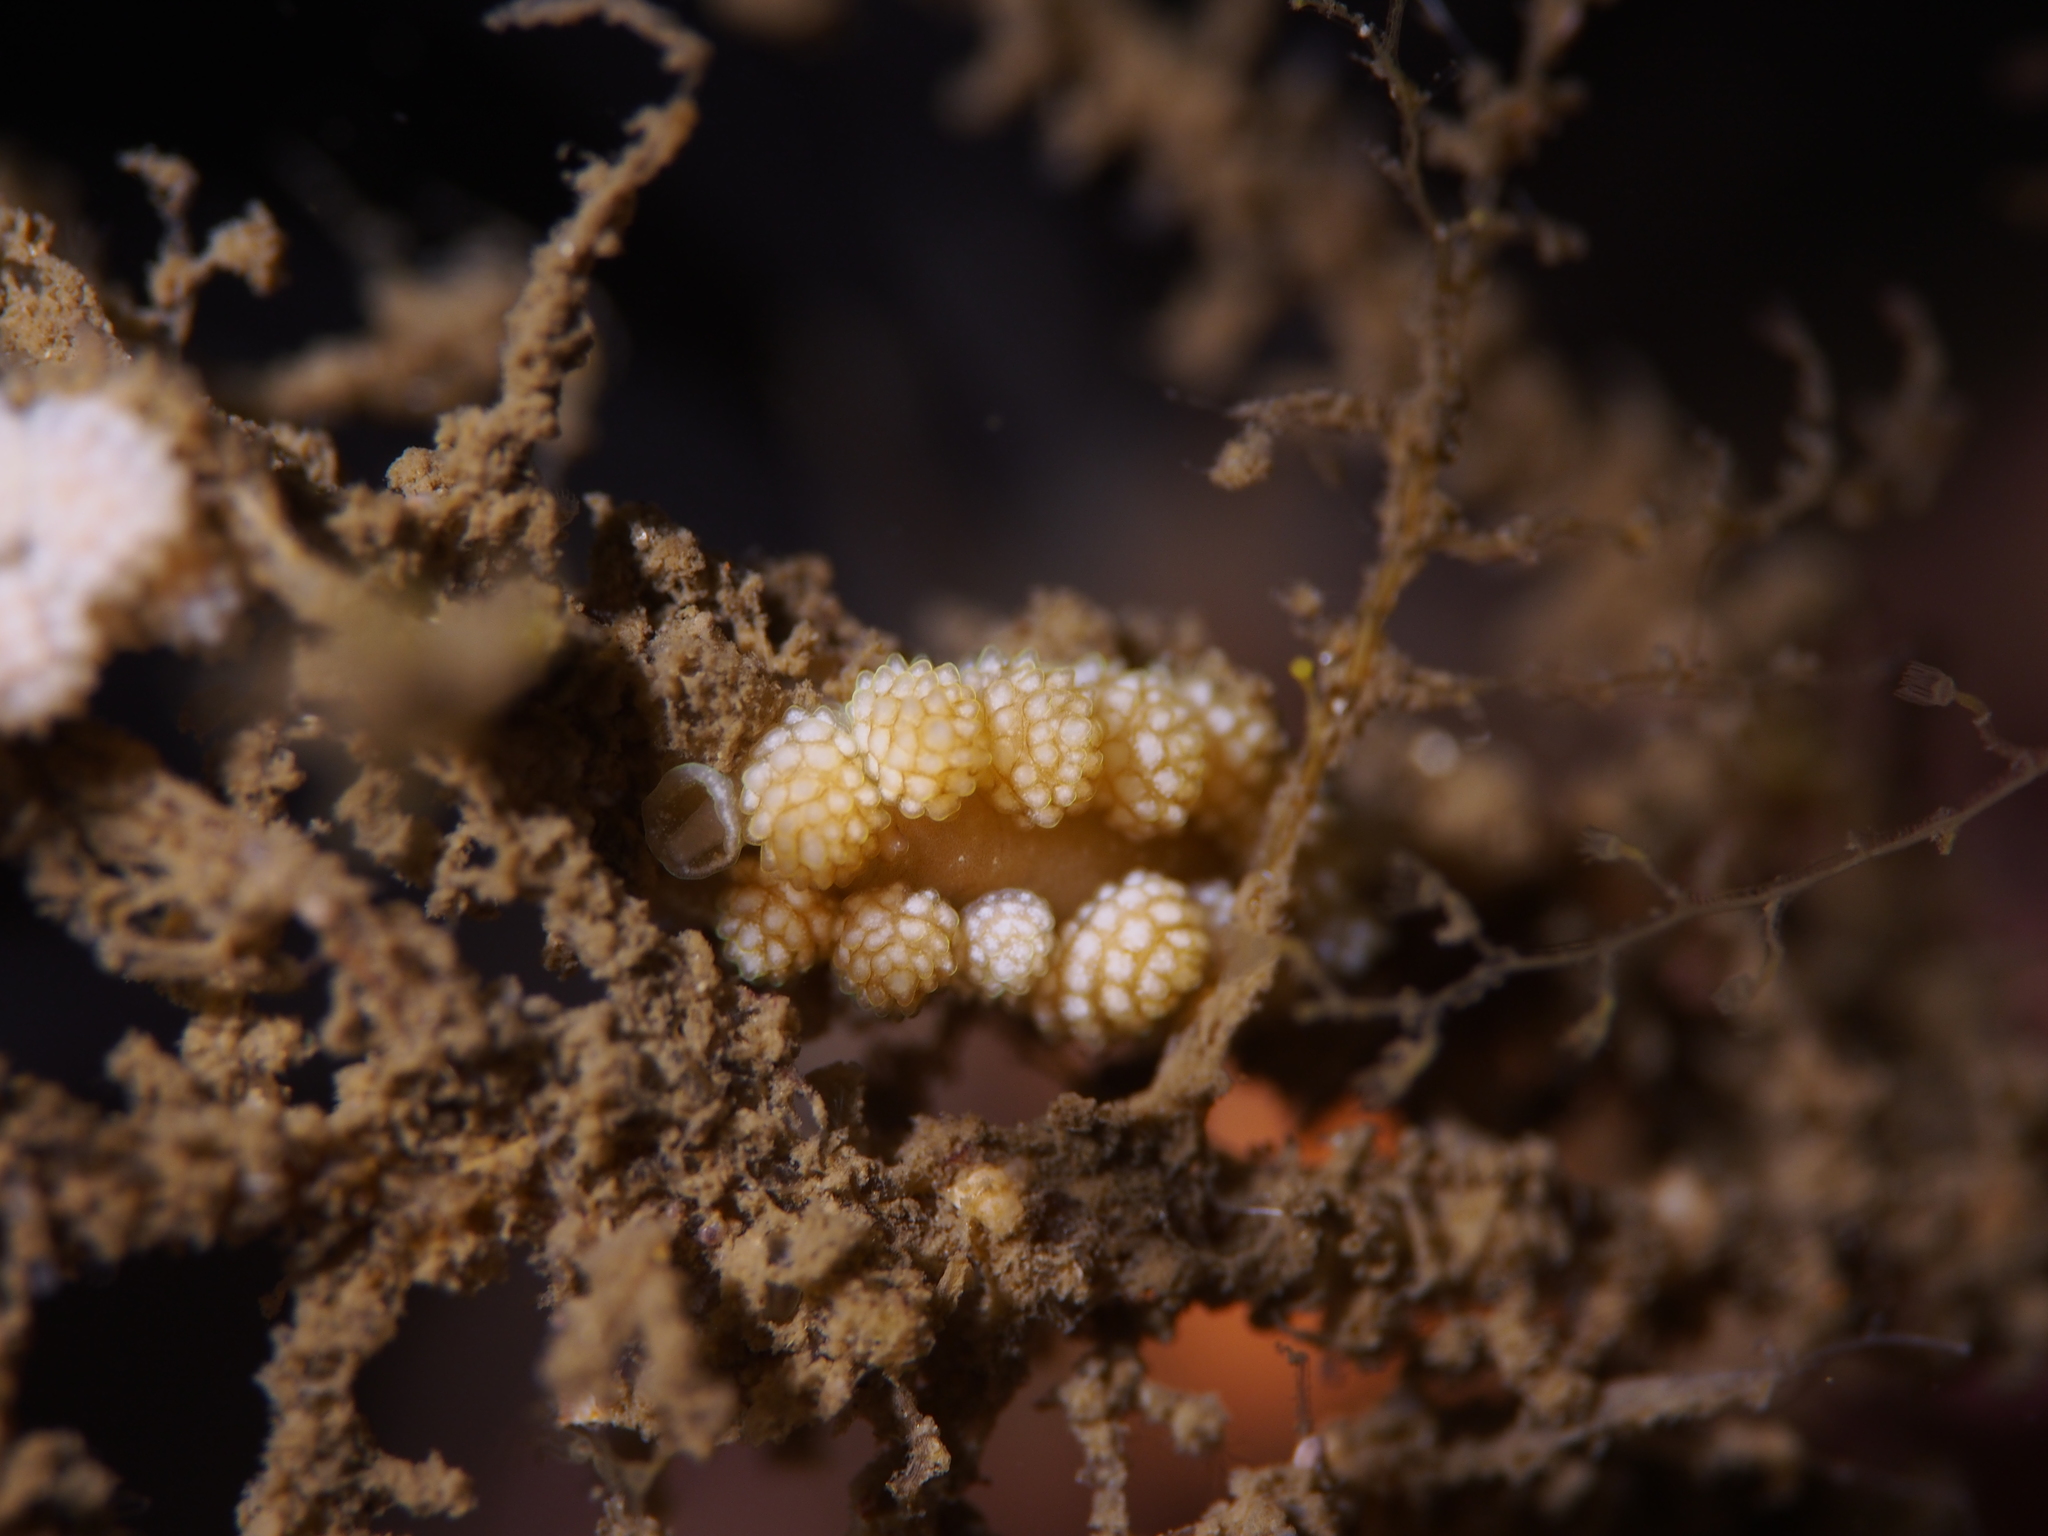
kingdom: Animalia
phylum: Mollusca
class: Gastropoda
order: Nudibranchia
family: Dotidae
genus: Doto
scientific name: Doto fragilis
